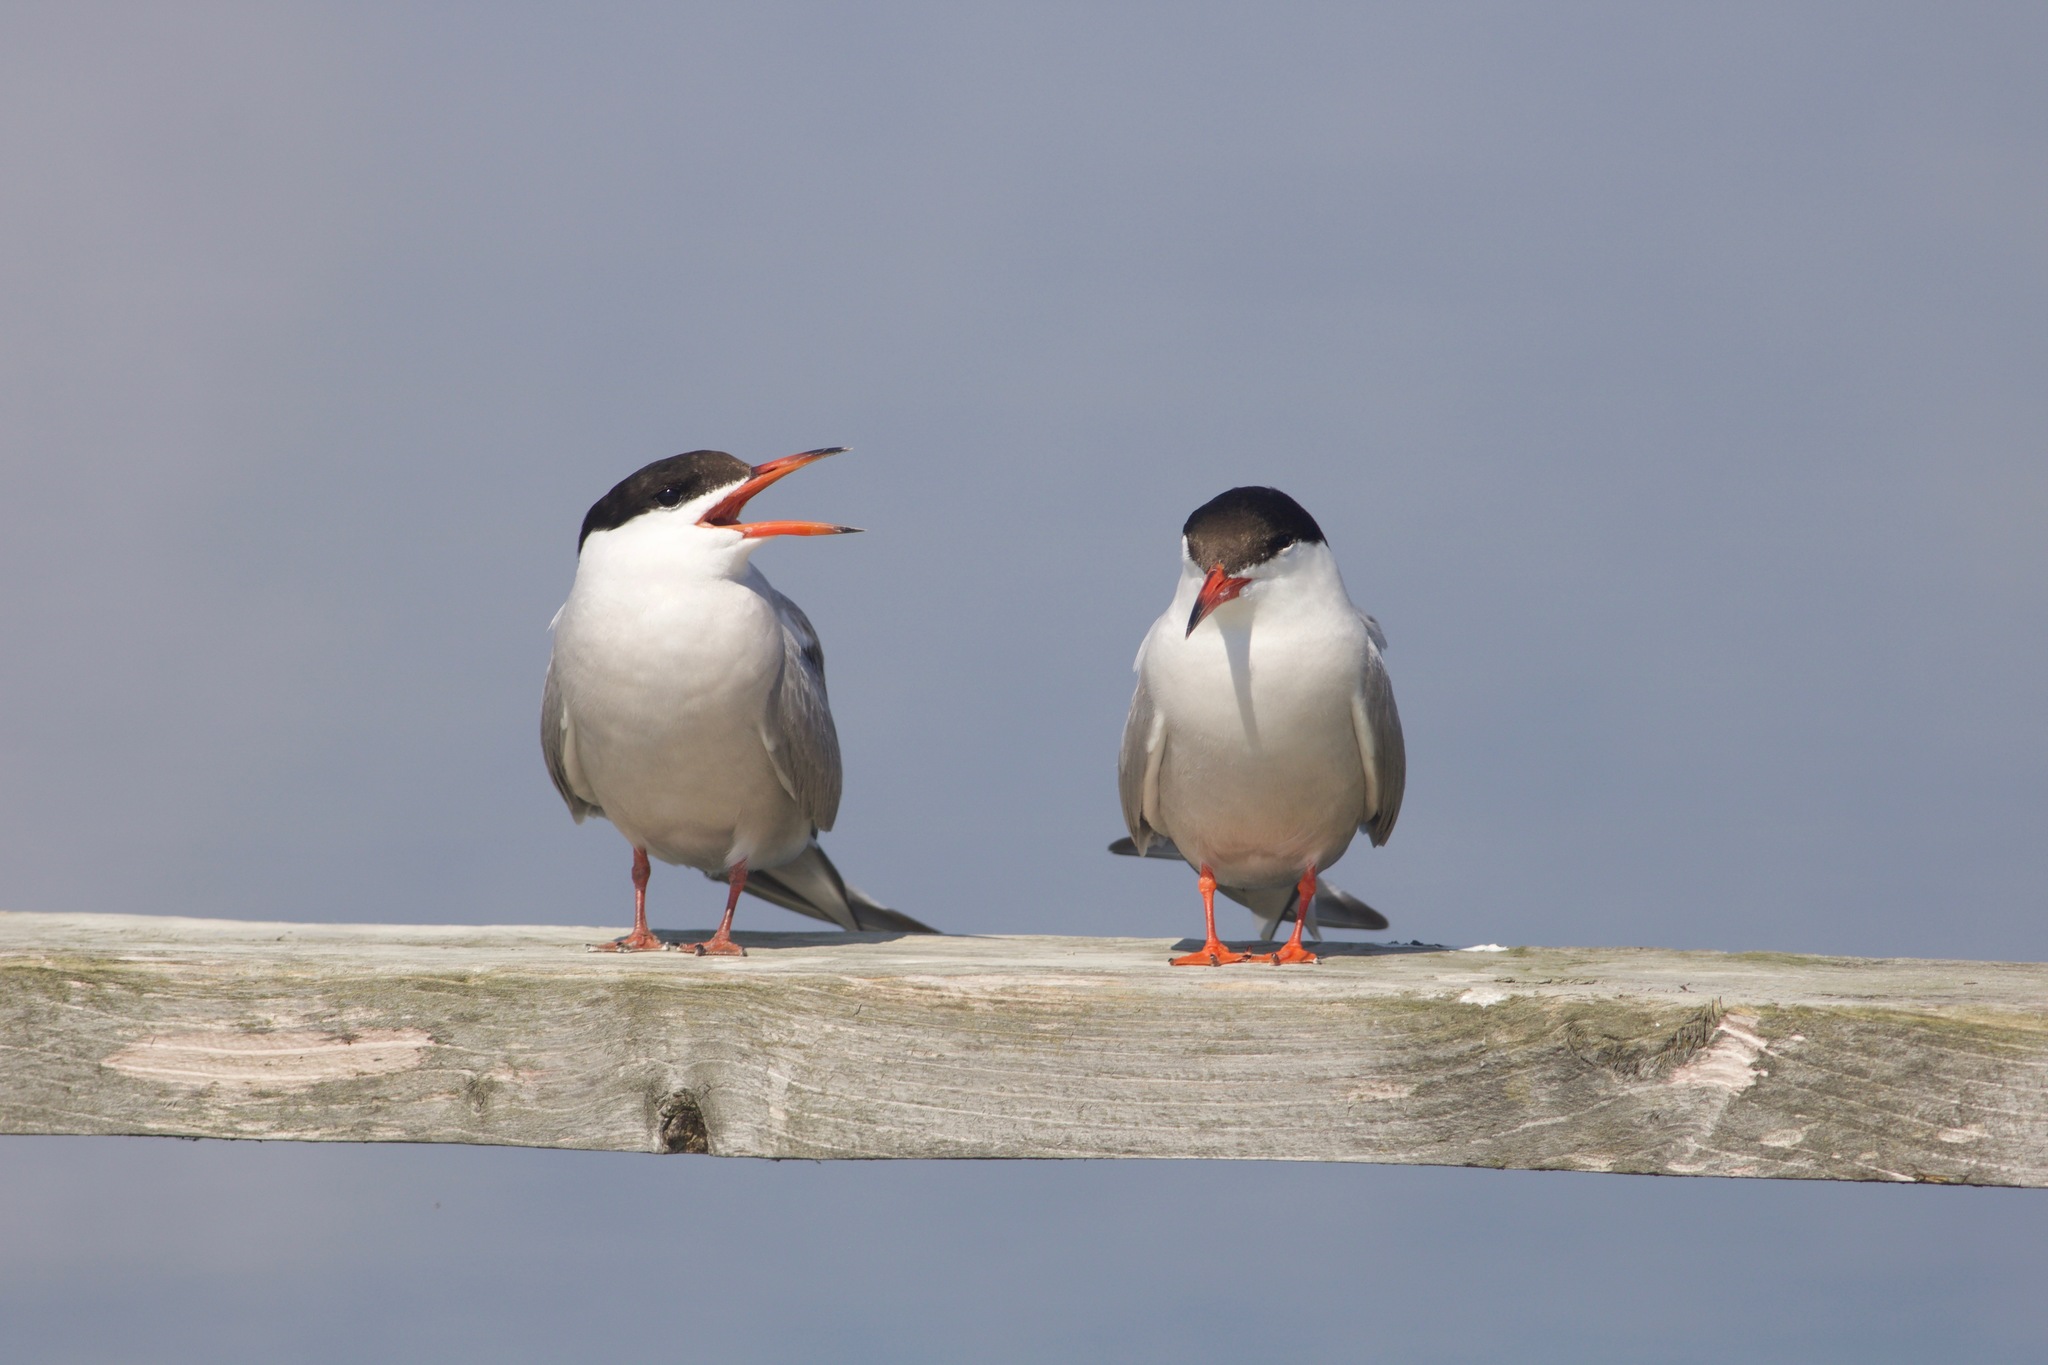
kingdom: Animalia
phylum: Chordata
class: Aves
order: Charadriiformes
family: Laridae
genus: Sterna
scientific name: Sterna hirundo
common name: Common tern
